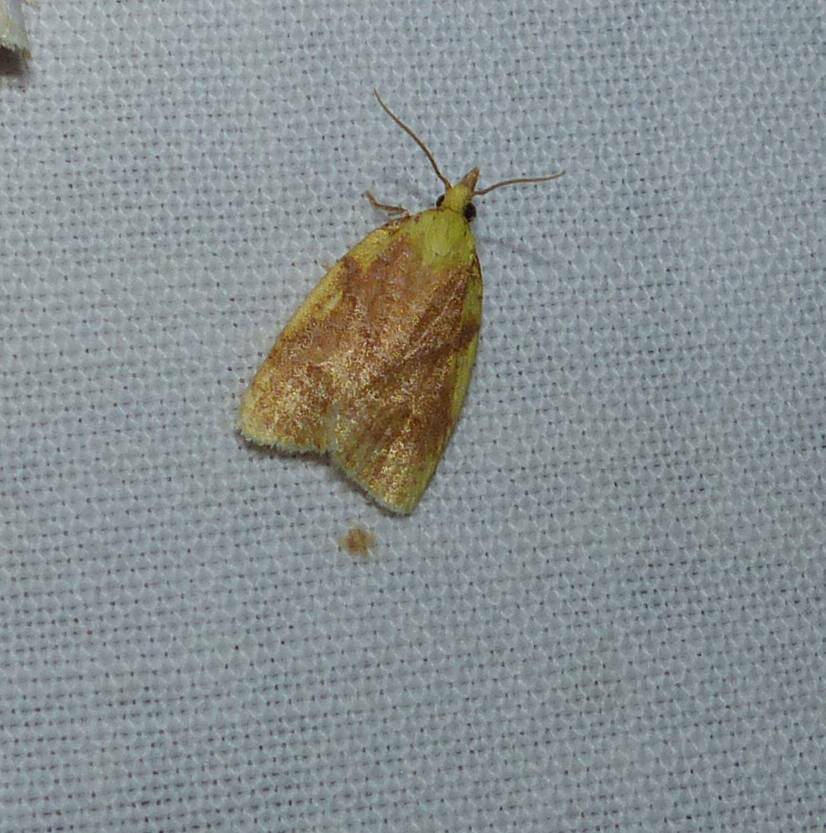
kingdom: Animalia
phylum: Arthropoda
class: Insecta
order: Lepidoptera
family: Tortricidae
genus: Cenopis
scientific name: Cenopis pettitana
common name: Maple-basswood leafroller moth
